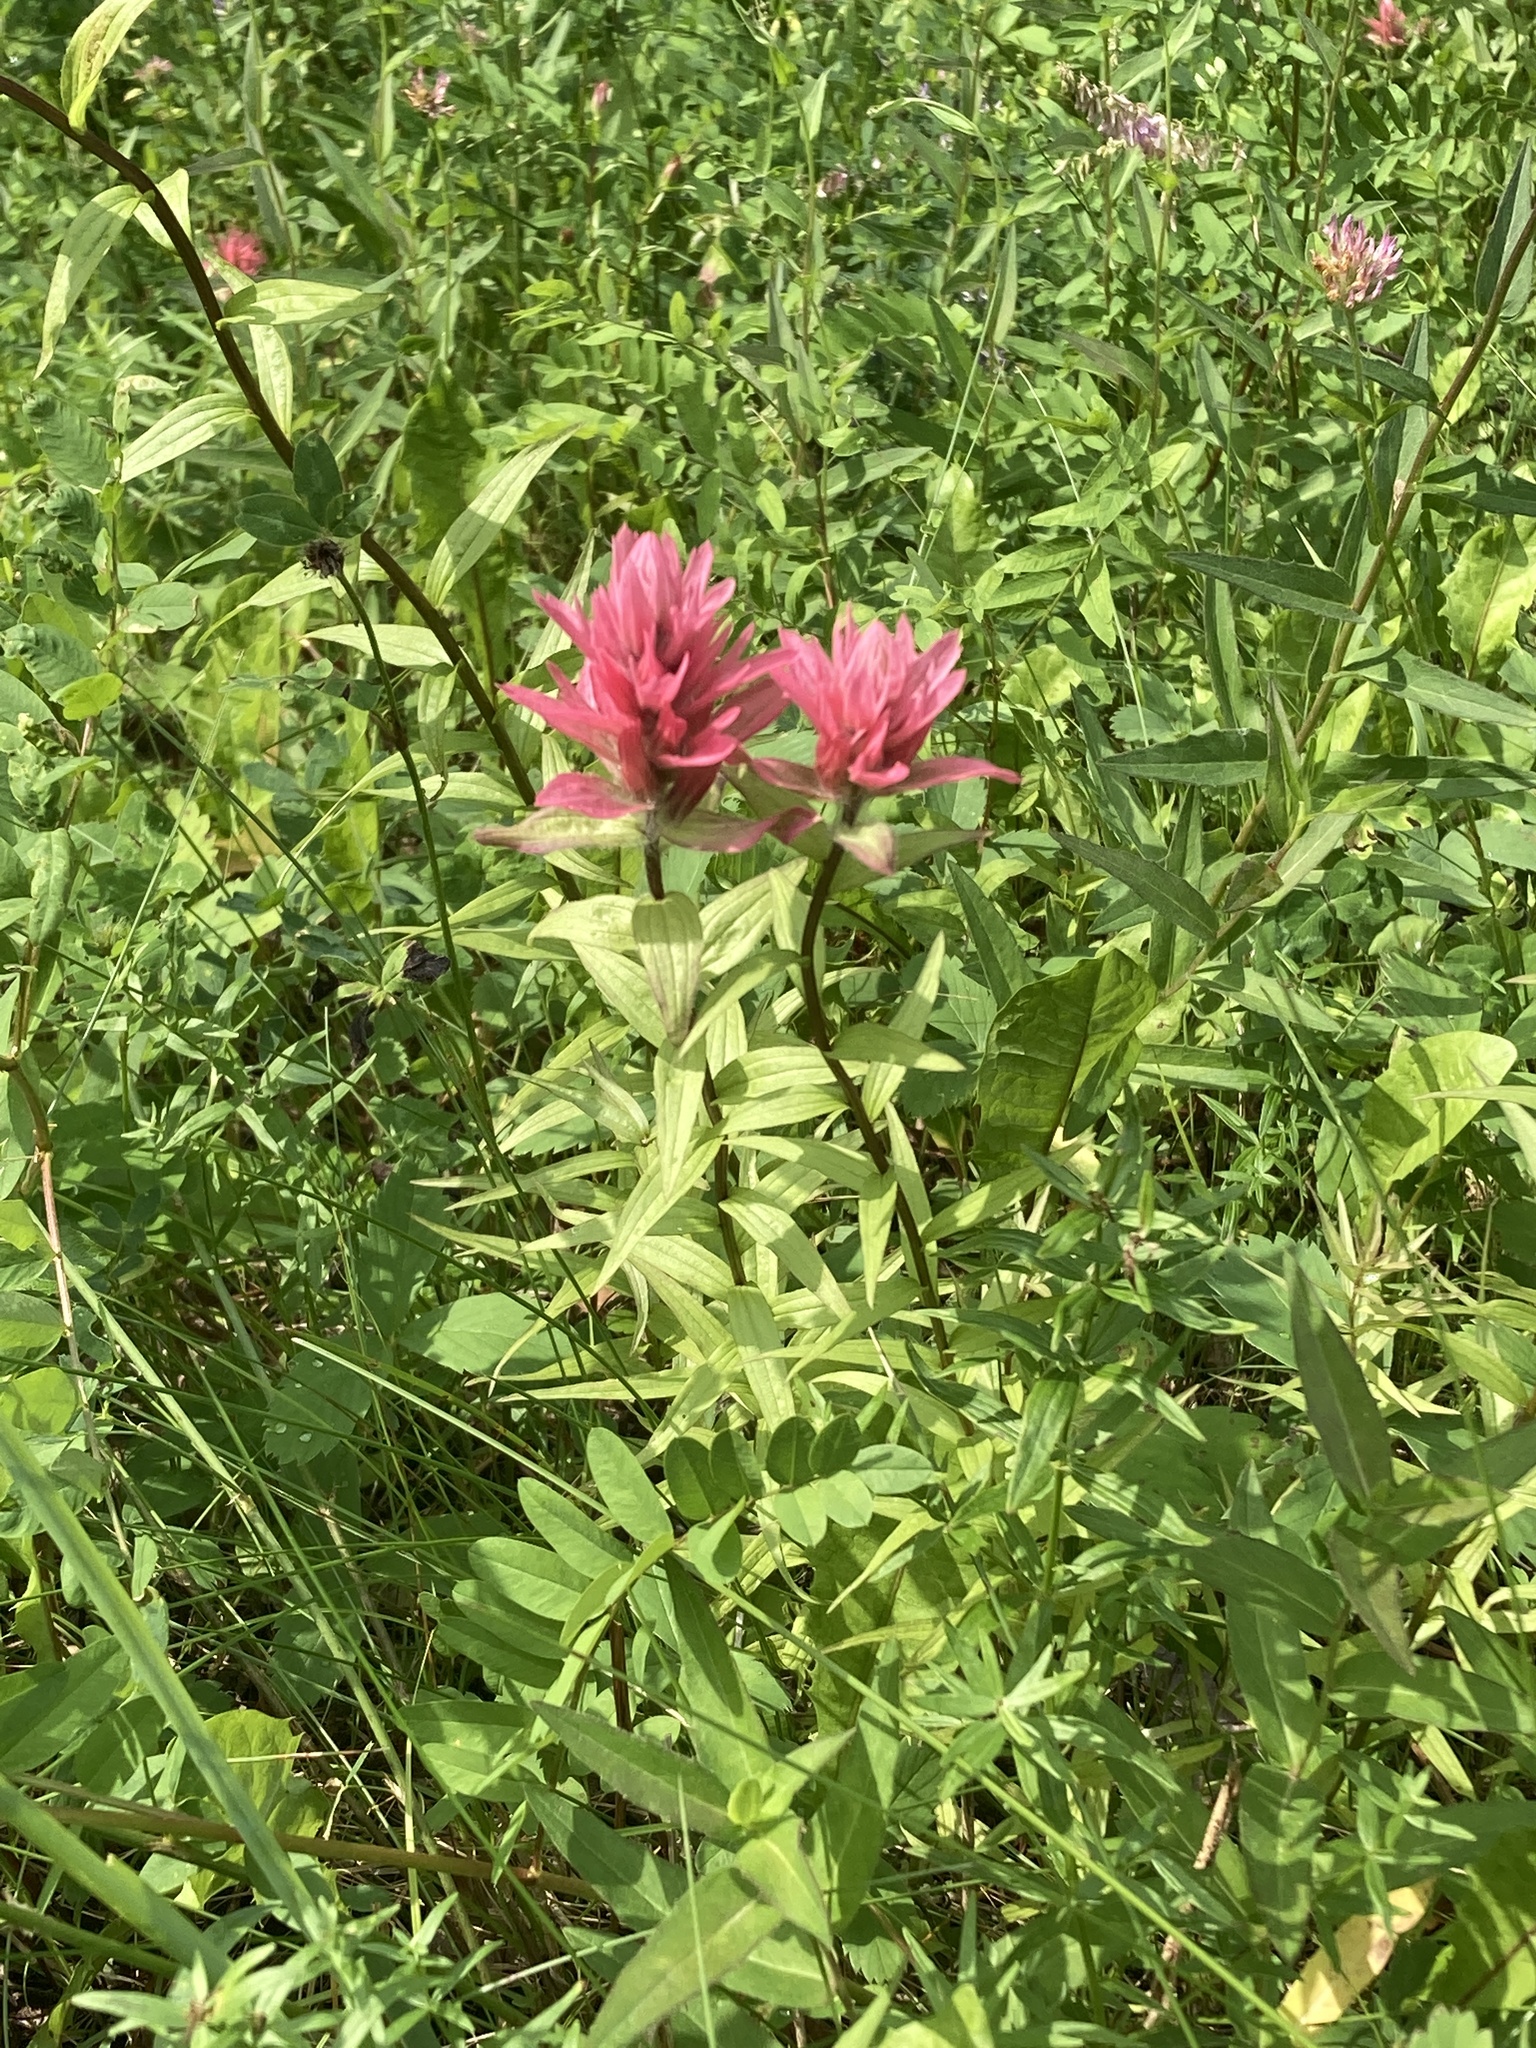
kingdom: Plantae
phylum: Tracheophyta
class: Magnoliopsida
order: Lamiales
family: Orobanchaceae
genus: Castilleja
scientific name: Castilleja miniata
